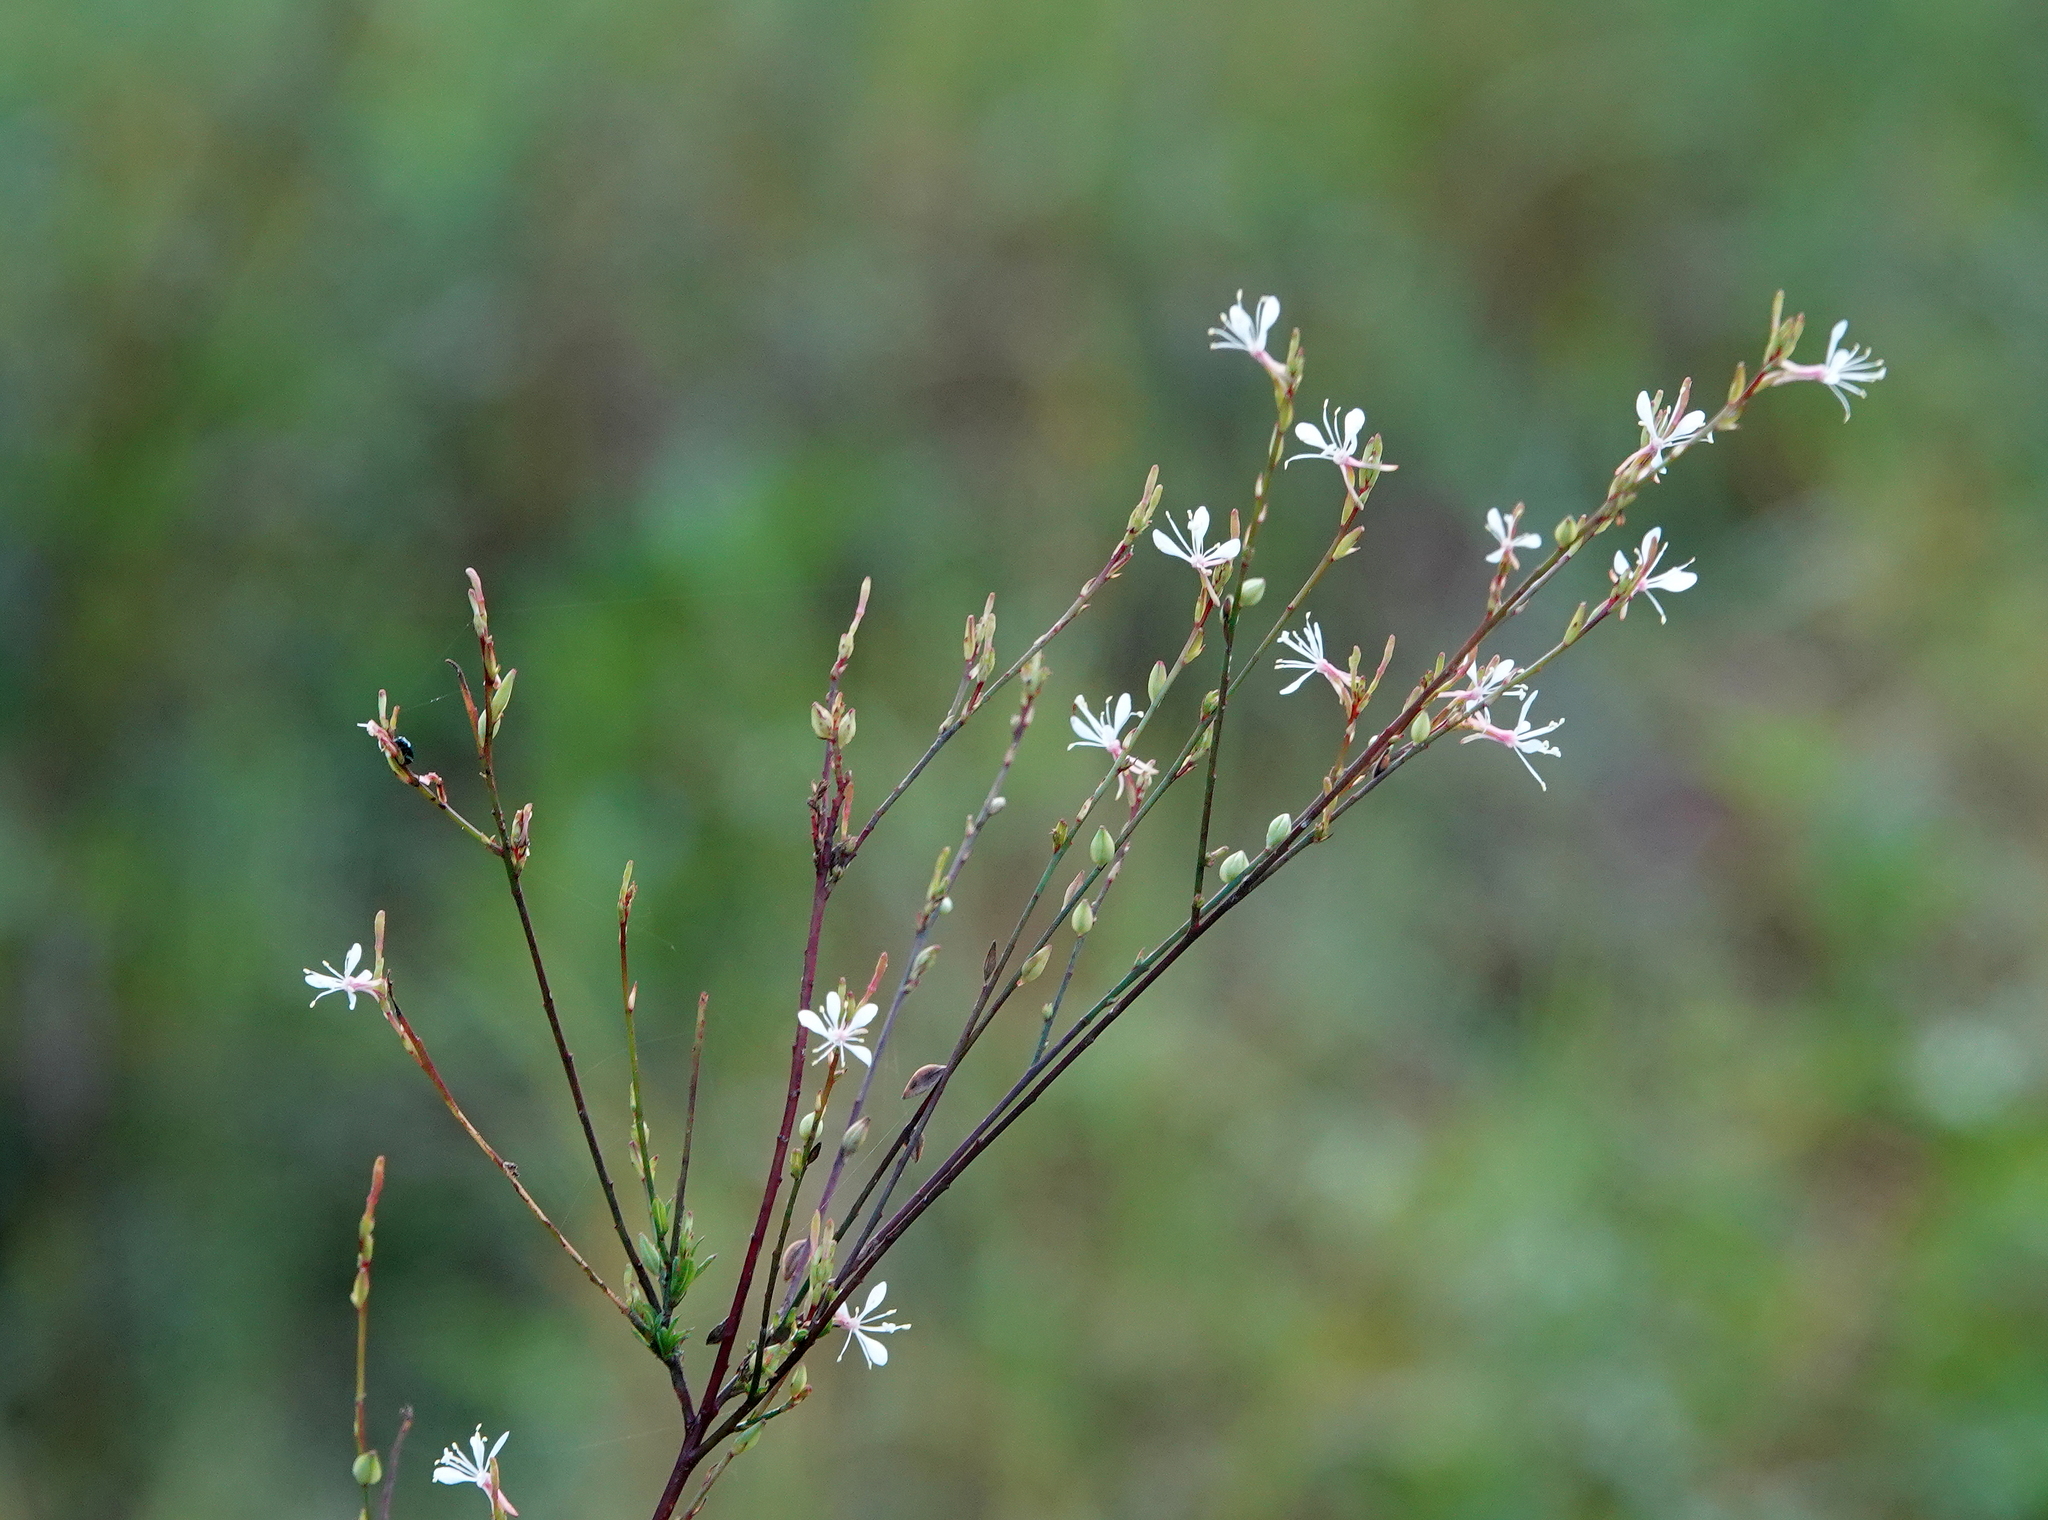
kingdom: Plantae
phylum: Tracheophyta
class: Magnoliopsida
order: Myrtales
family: Onagraceae
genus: Oenothera
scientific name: Oenothera simulans
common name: Southern beeblossom
